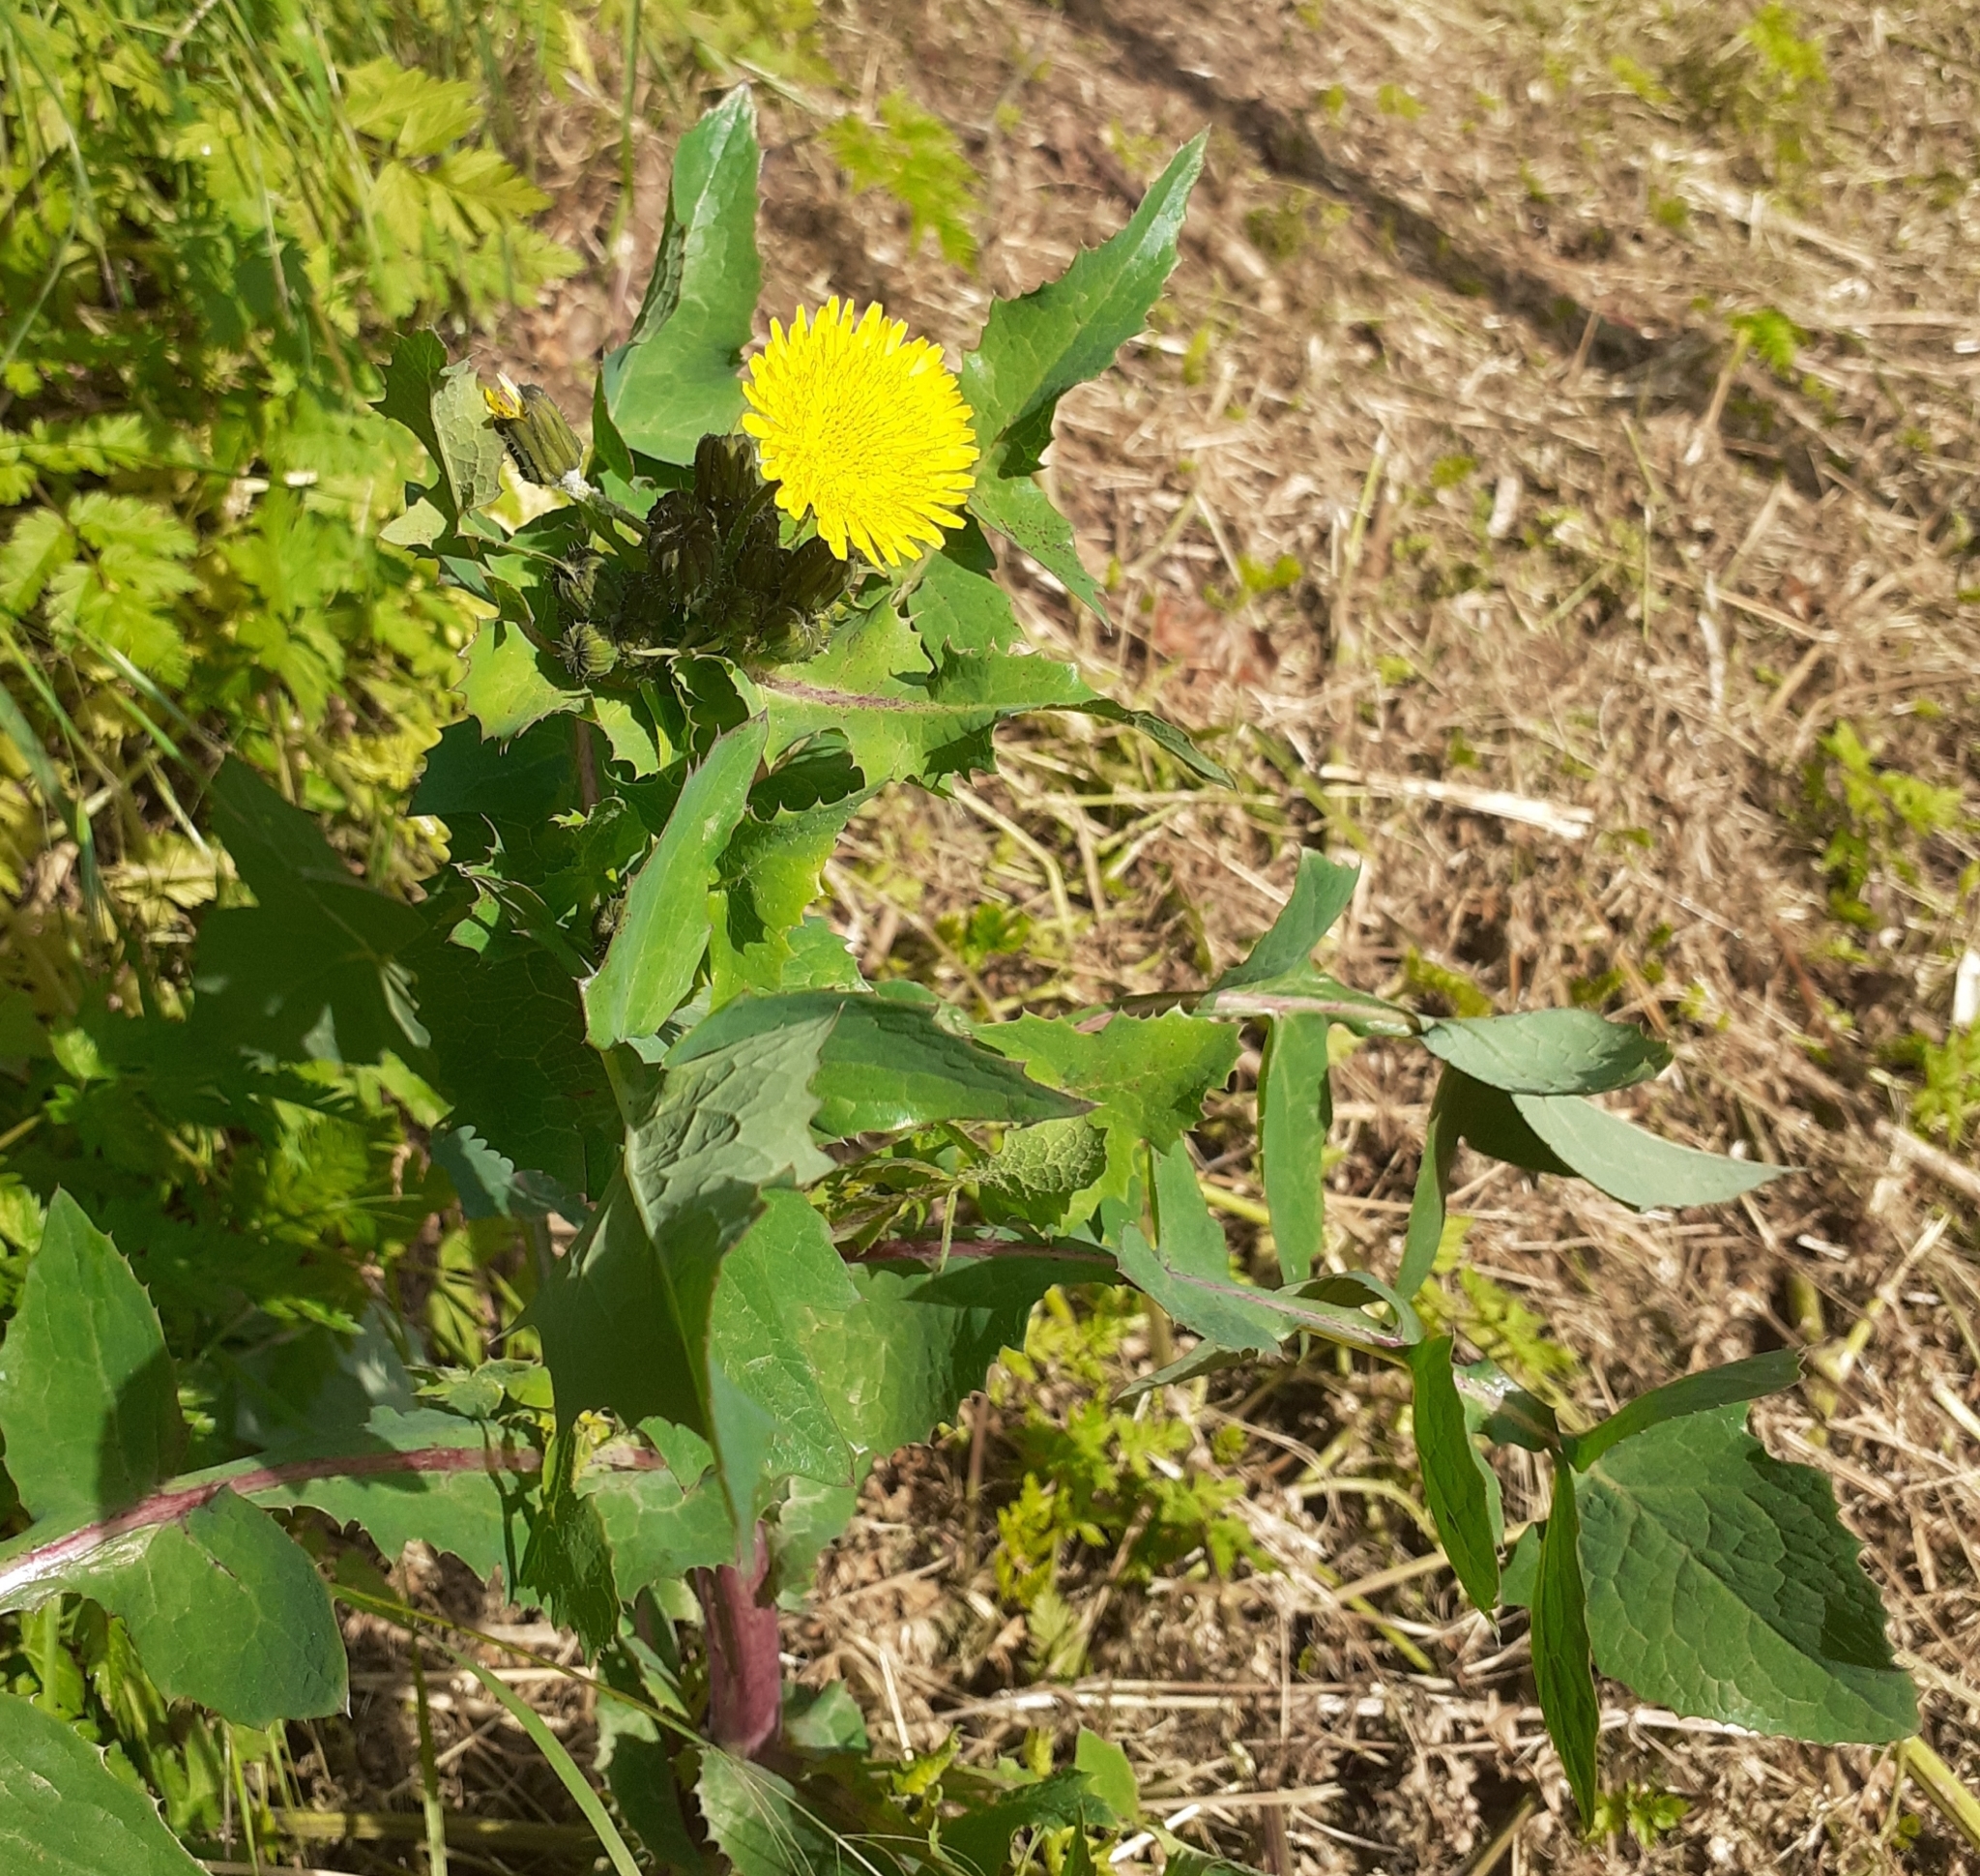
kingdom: Plantae
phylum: Tracheophyta
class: Magnoliopsida
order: Asterales
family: Asteraceae
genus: Sonchus
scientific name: Sonchus oleraceus
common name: Common sowthistle
